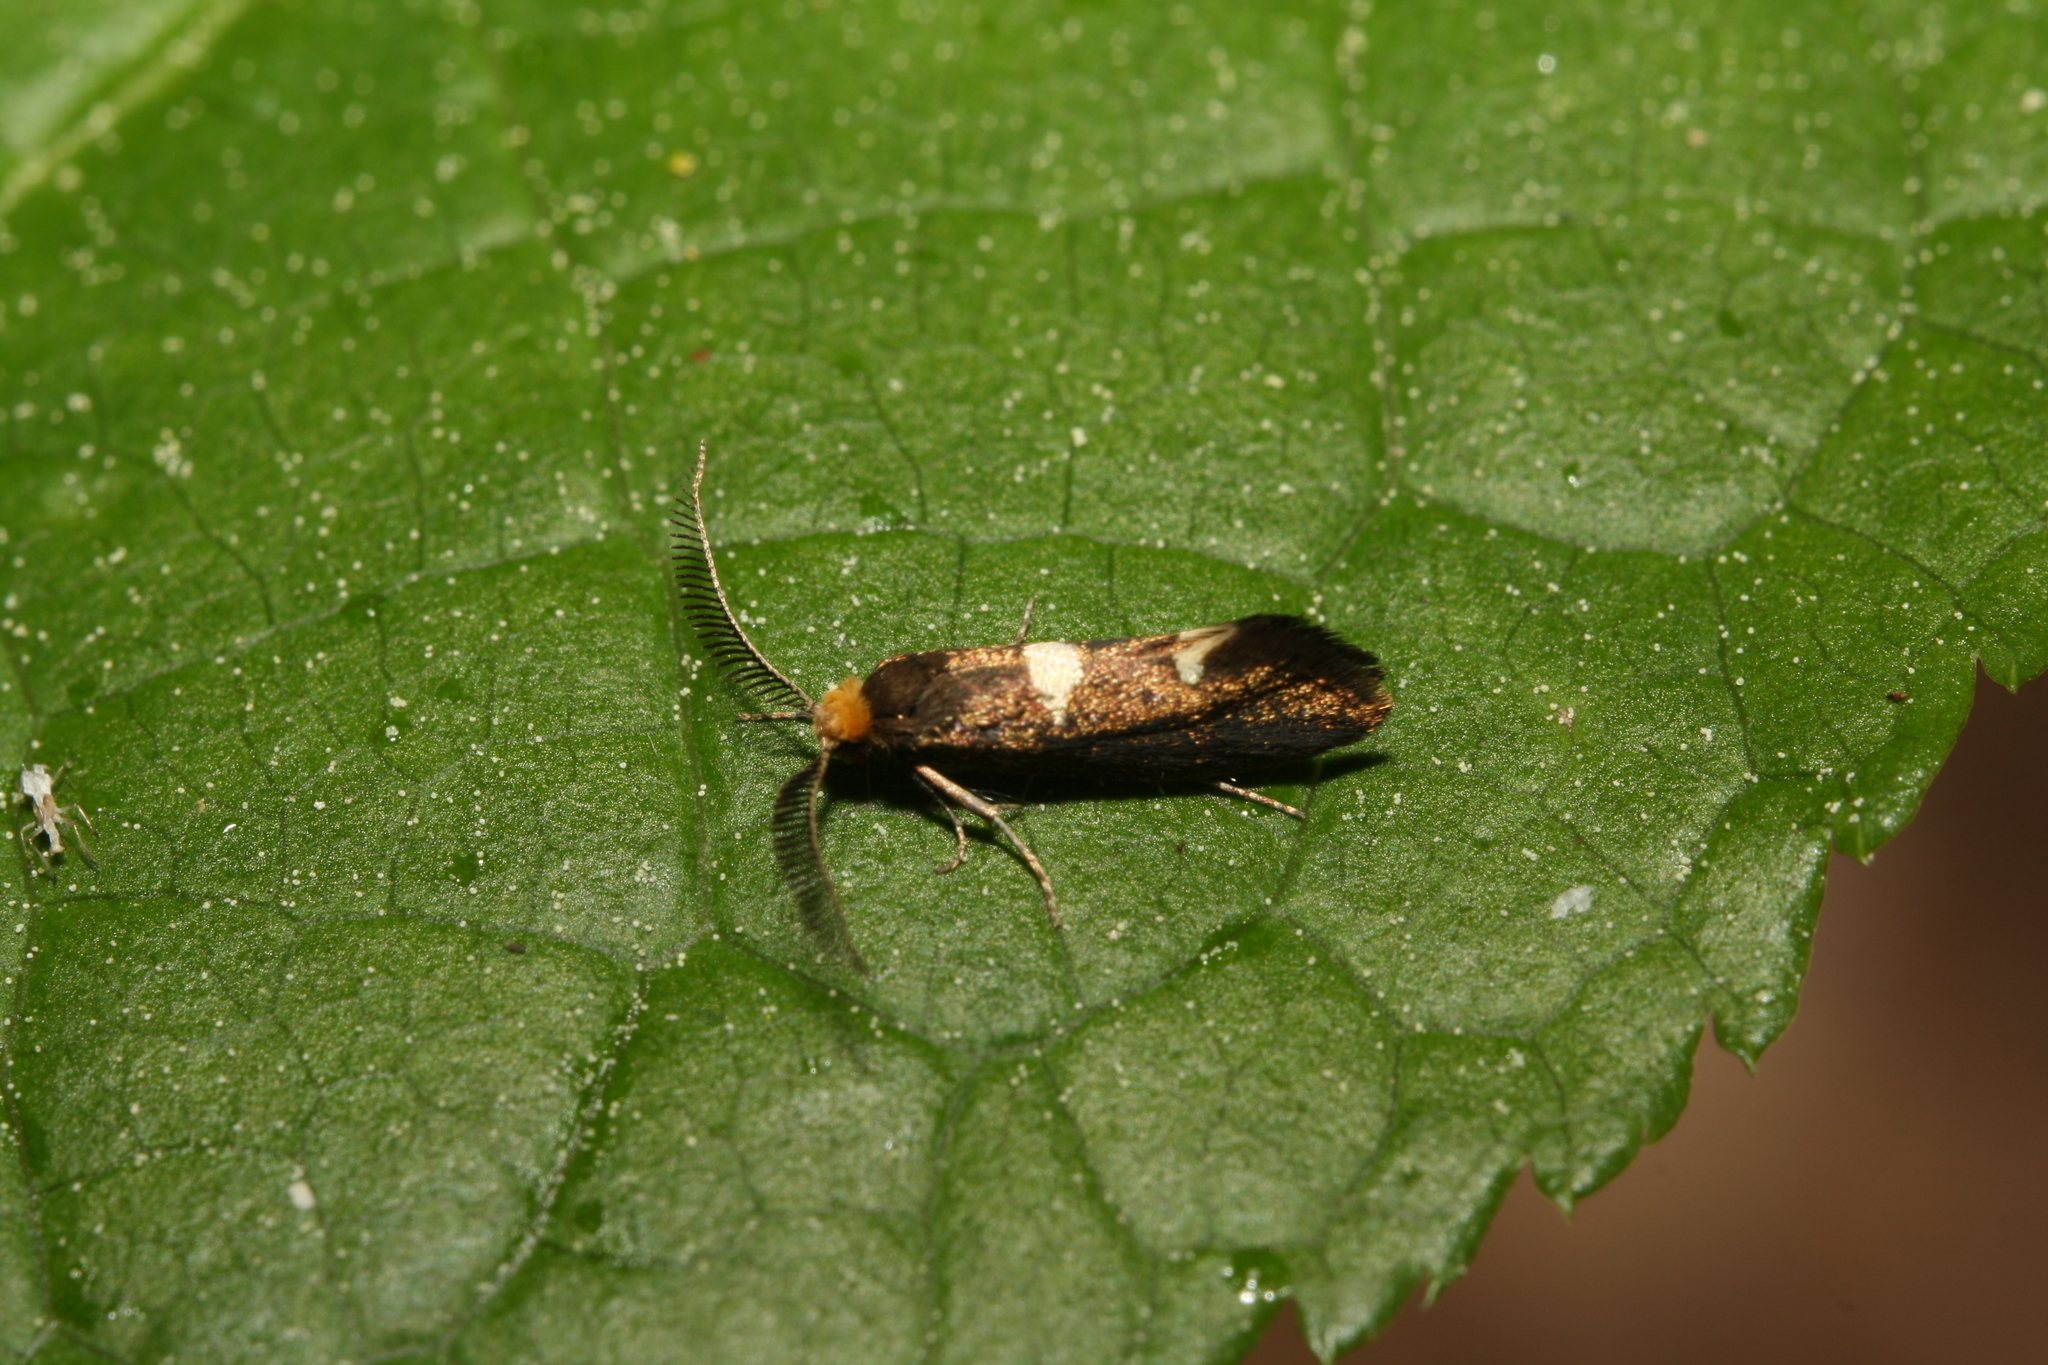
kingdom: Animalia
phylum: Arthropoda
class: Insecta
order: Lepidoptera
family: Incurvariidae
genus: Incurvaria
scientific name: Incurvaria masculella
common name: Feathered leaf-cutter
